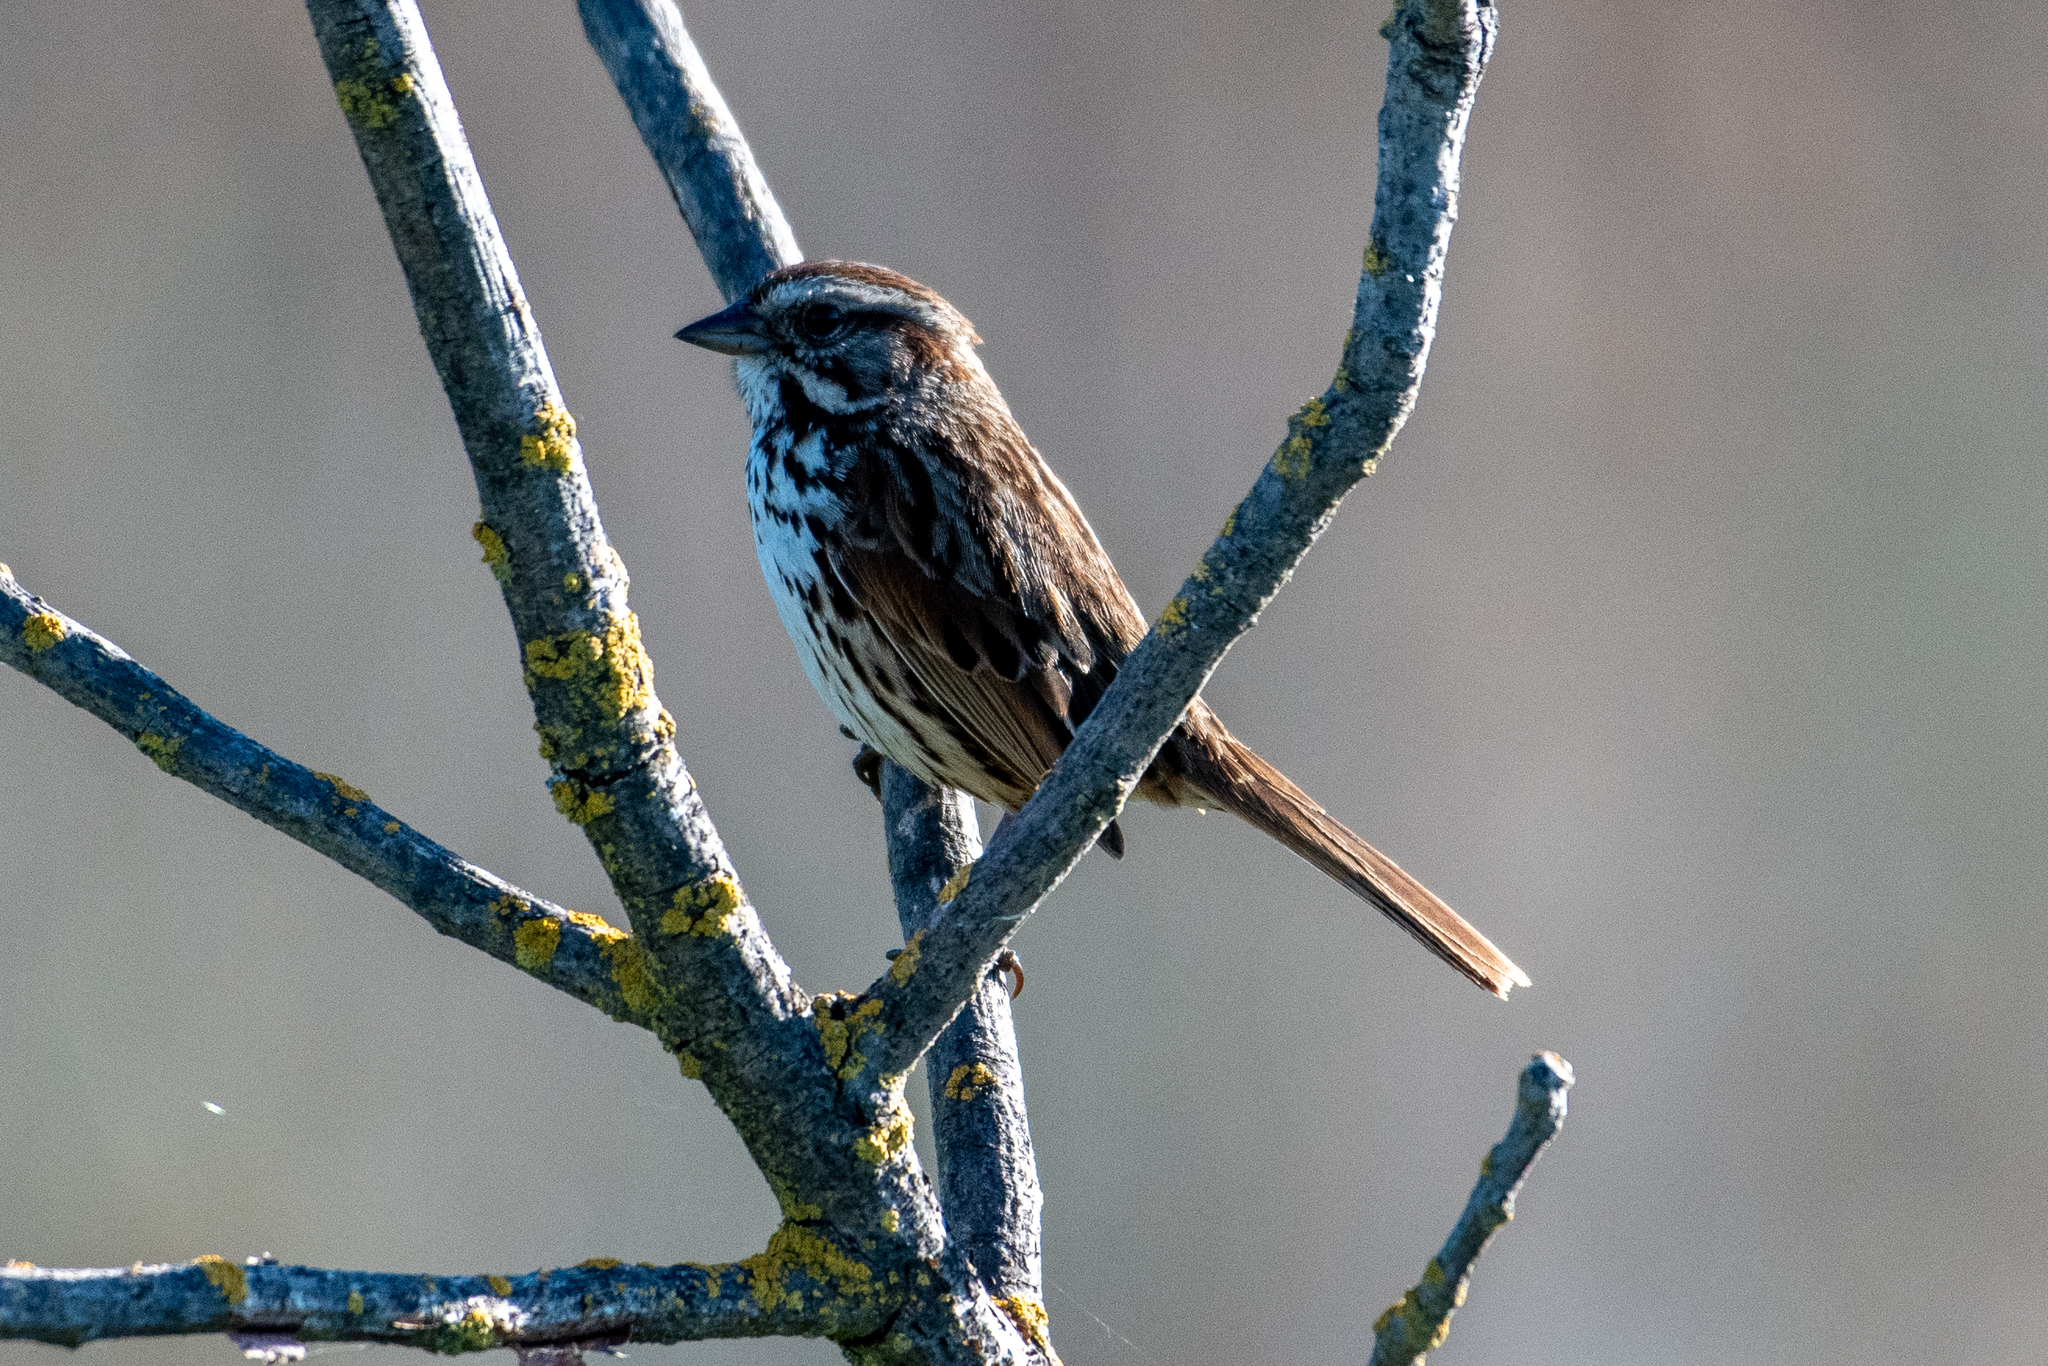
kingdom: Animalia
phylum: Chordata
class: Aves
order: Passeriformes
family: Passerellidae
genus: Melospiza
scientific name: Melospiza melodia
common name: Song sparrow
